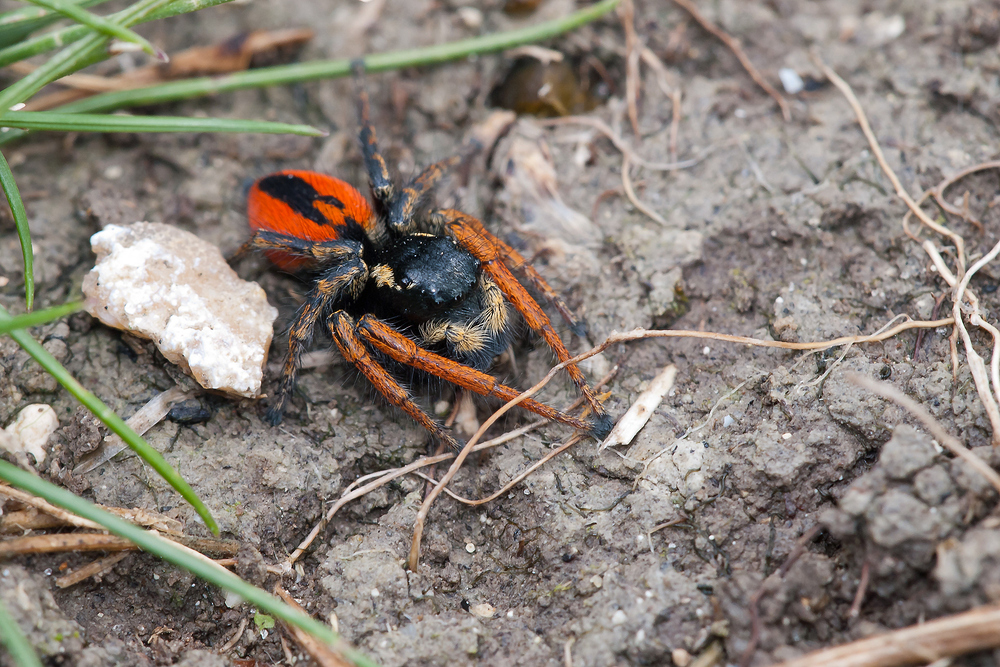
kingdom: Animalia
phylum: Arthropoda
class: Arachnida
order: Araneae
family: Salticidae
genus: Philaeus
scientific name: Philaeus chrysops
